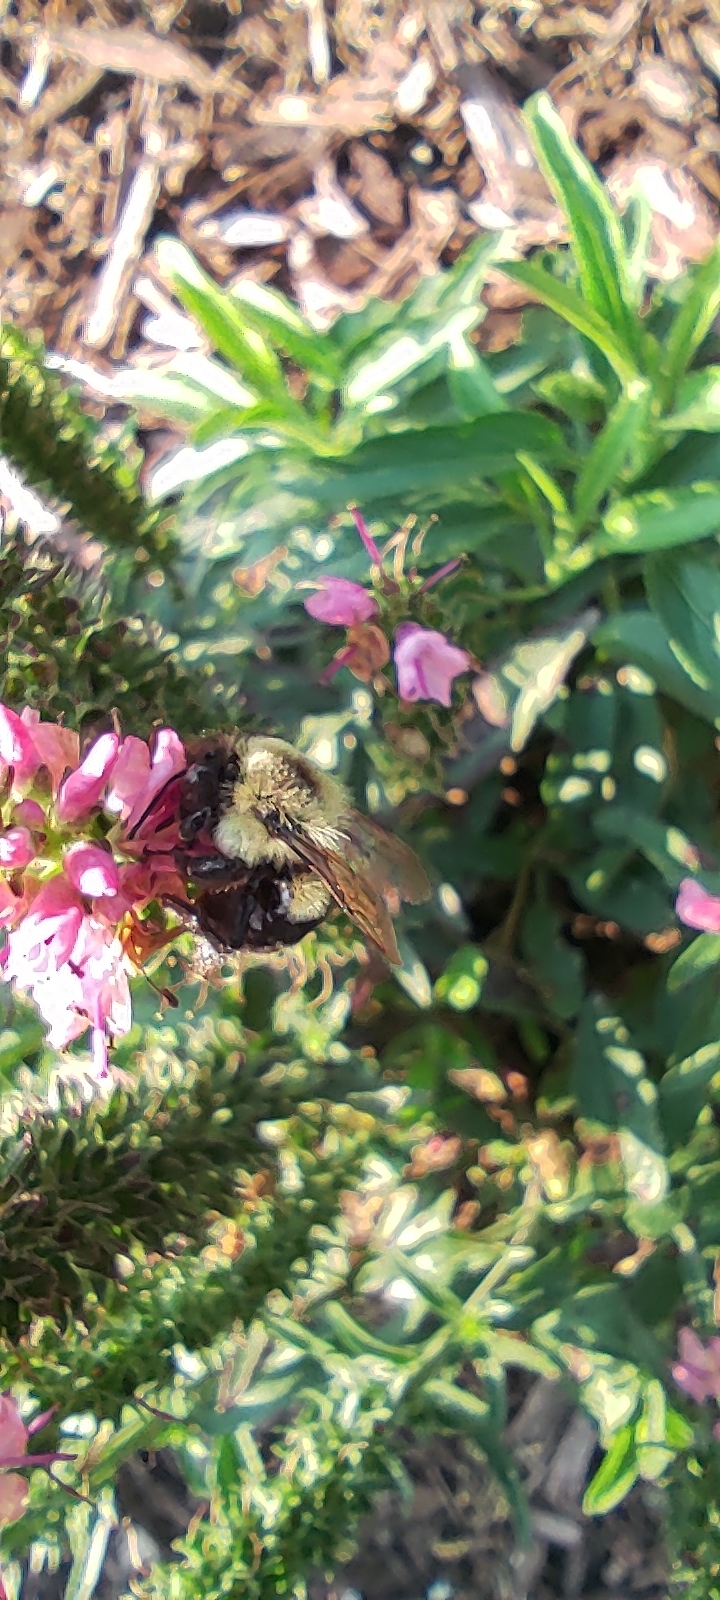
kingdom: Animalia
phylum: Arthropoda
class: Insecta
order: Hymenoptera
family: Apidae
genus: Bombus
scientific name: Bombus impatiens
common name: Common eastern bumble bee
